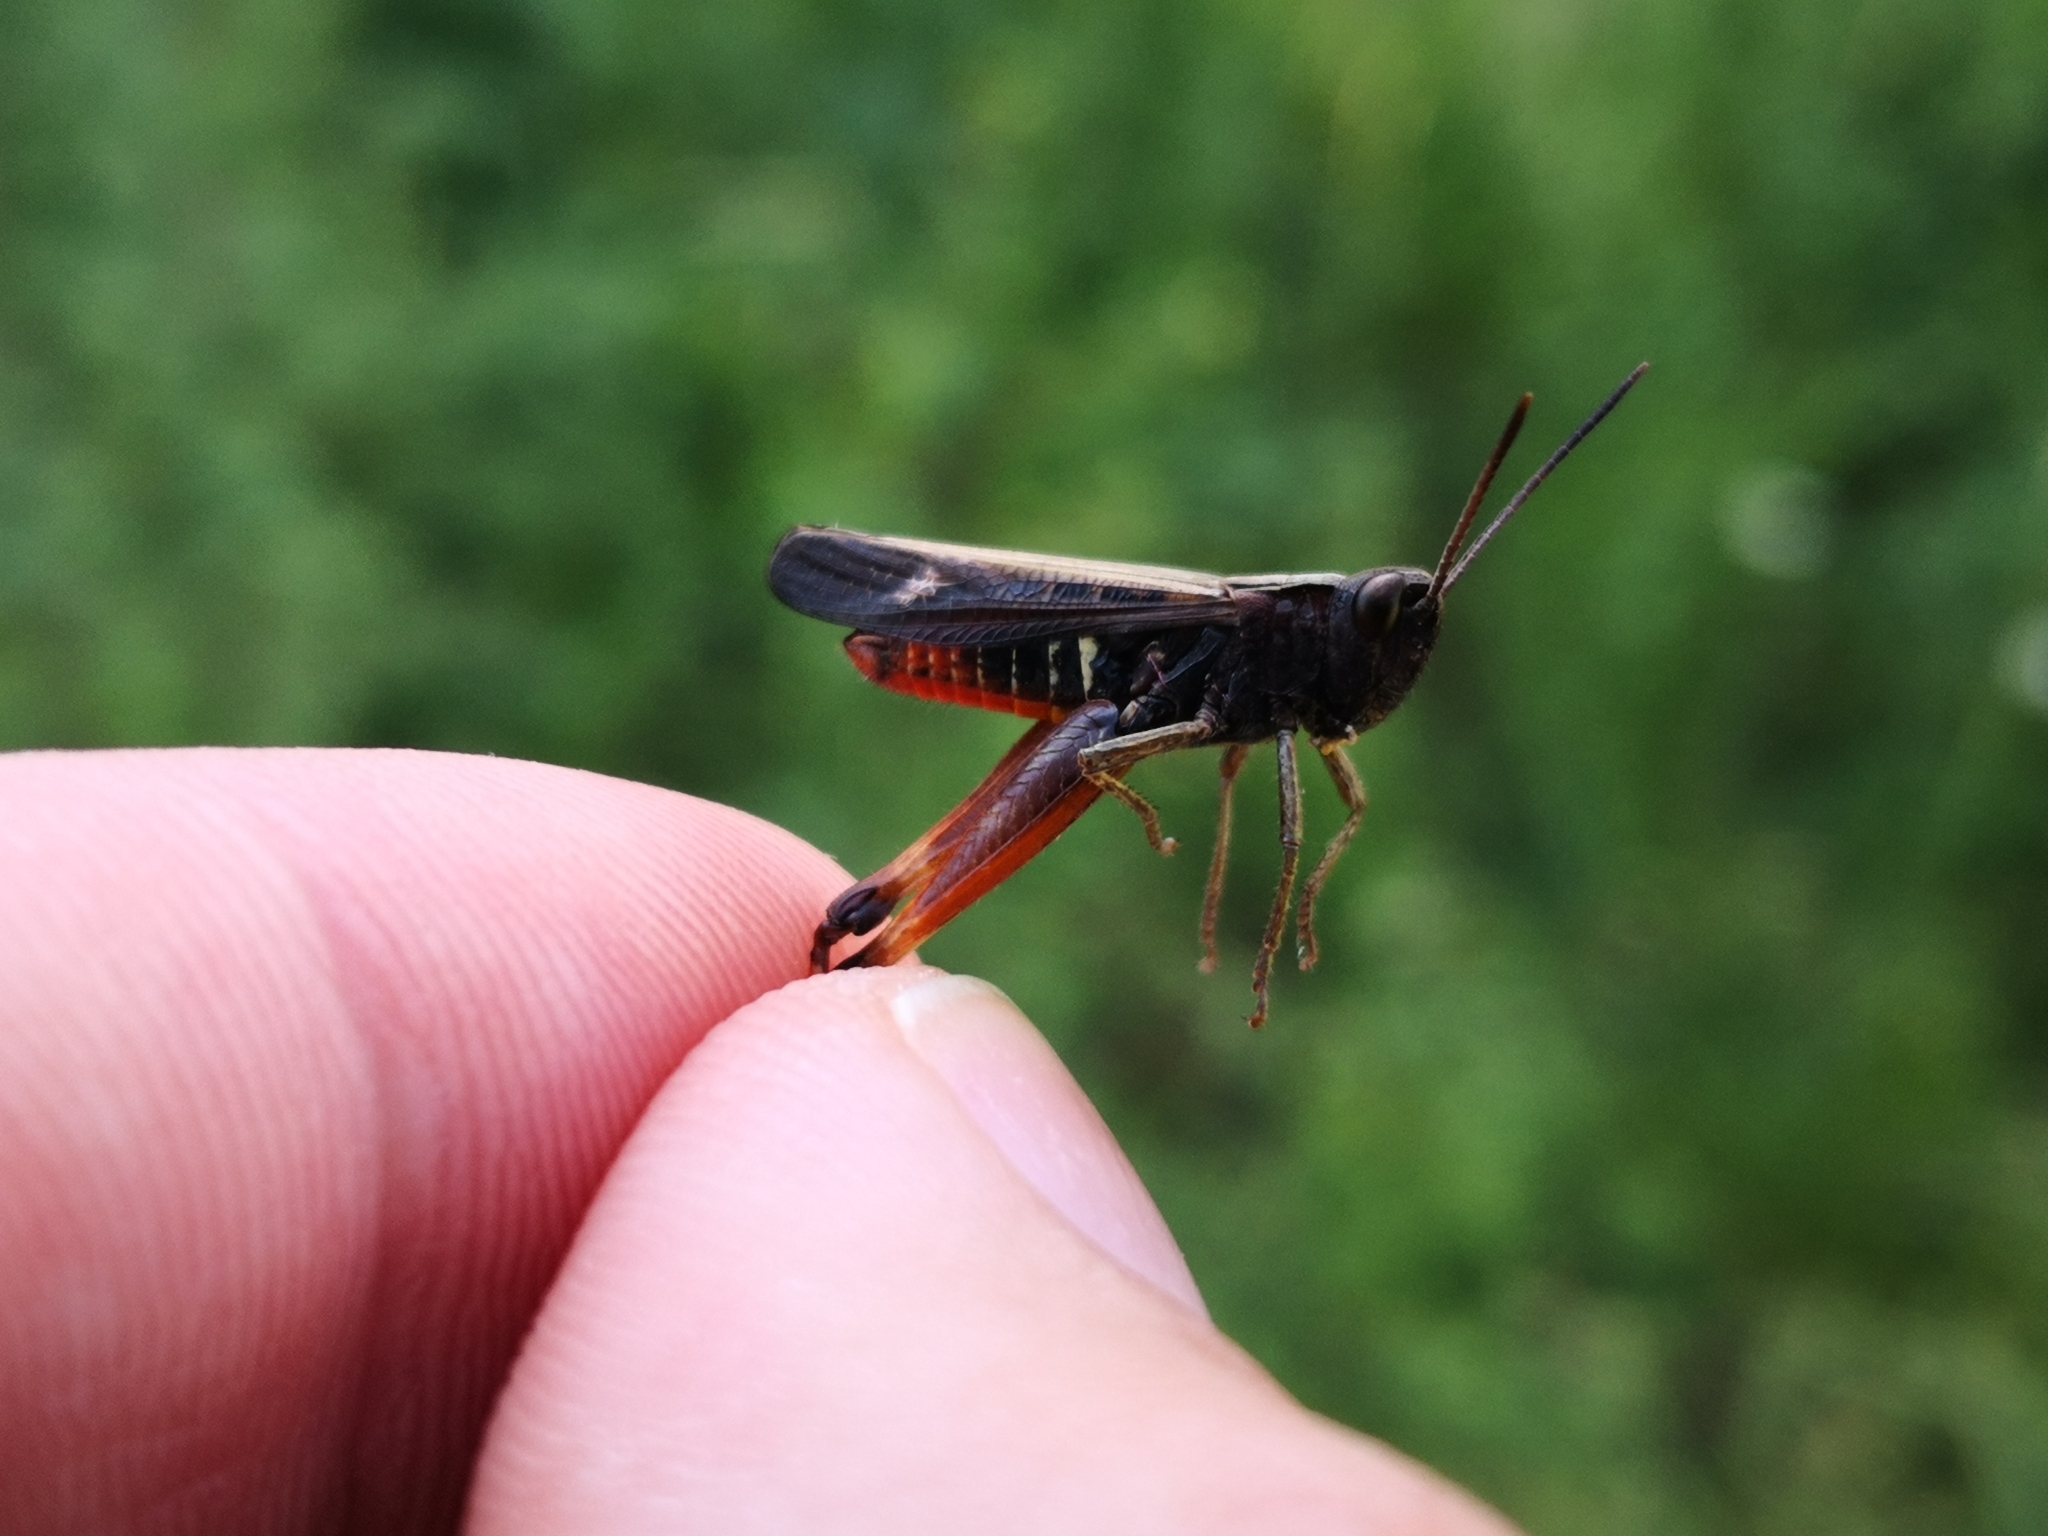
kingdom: Animalia
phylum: Arthropoda
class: Insecta
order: Orthoptera
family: Acrididae
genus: Omocestus
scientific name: Omocestus rufipes
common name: Woodland grasshopper
